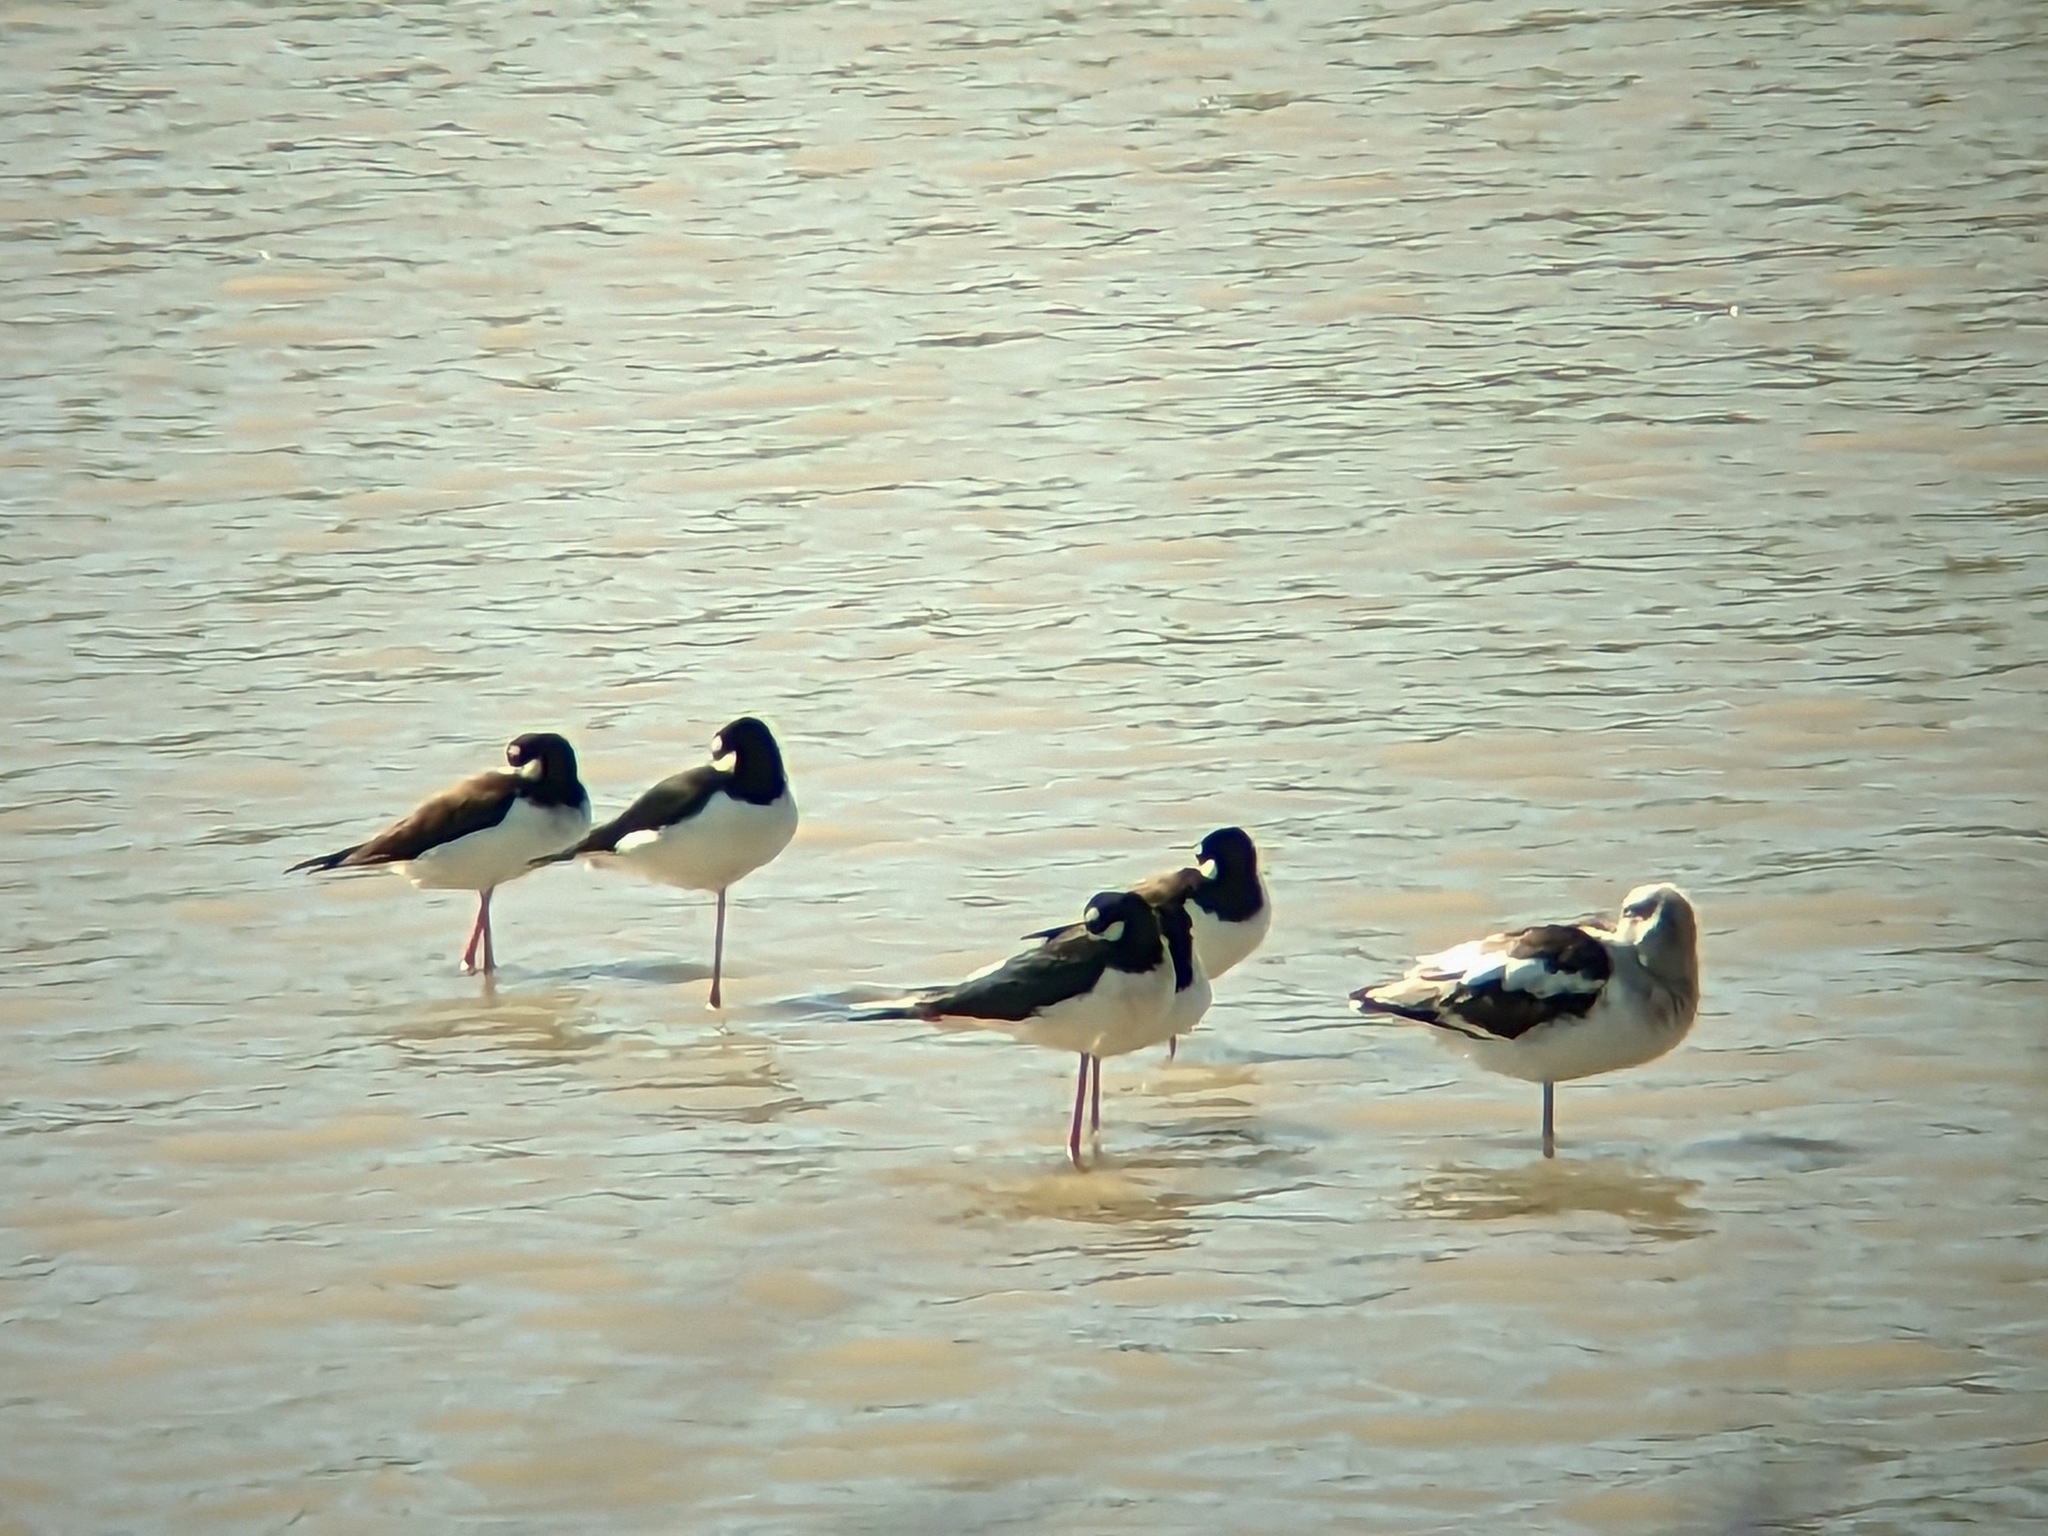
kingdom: Animalia
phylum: Chordata
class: Aves
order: Charadriiformes
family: Recurvirostridae
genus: Himantopus
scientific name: Himantopus mexicanus
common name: Black-necked stilt
